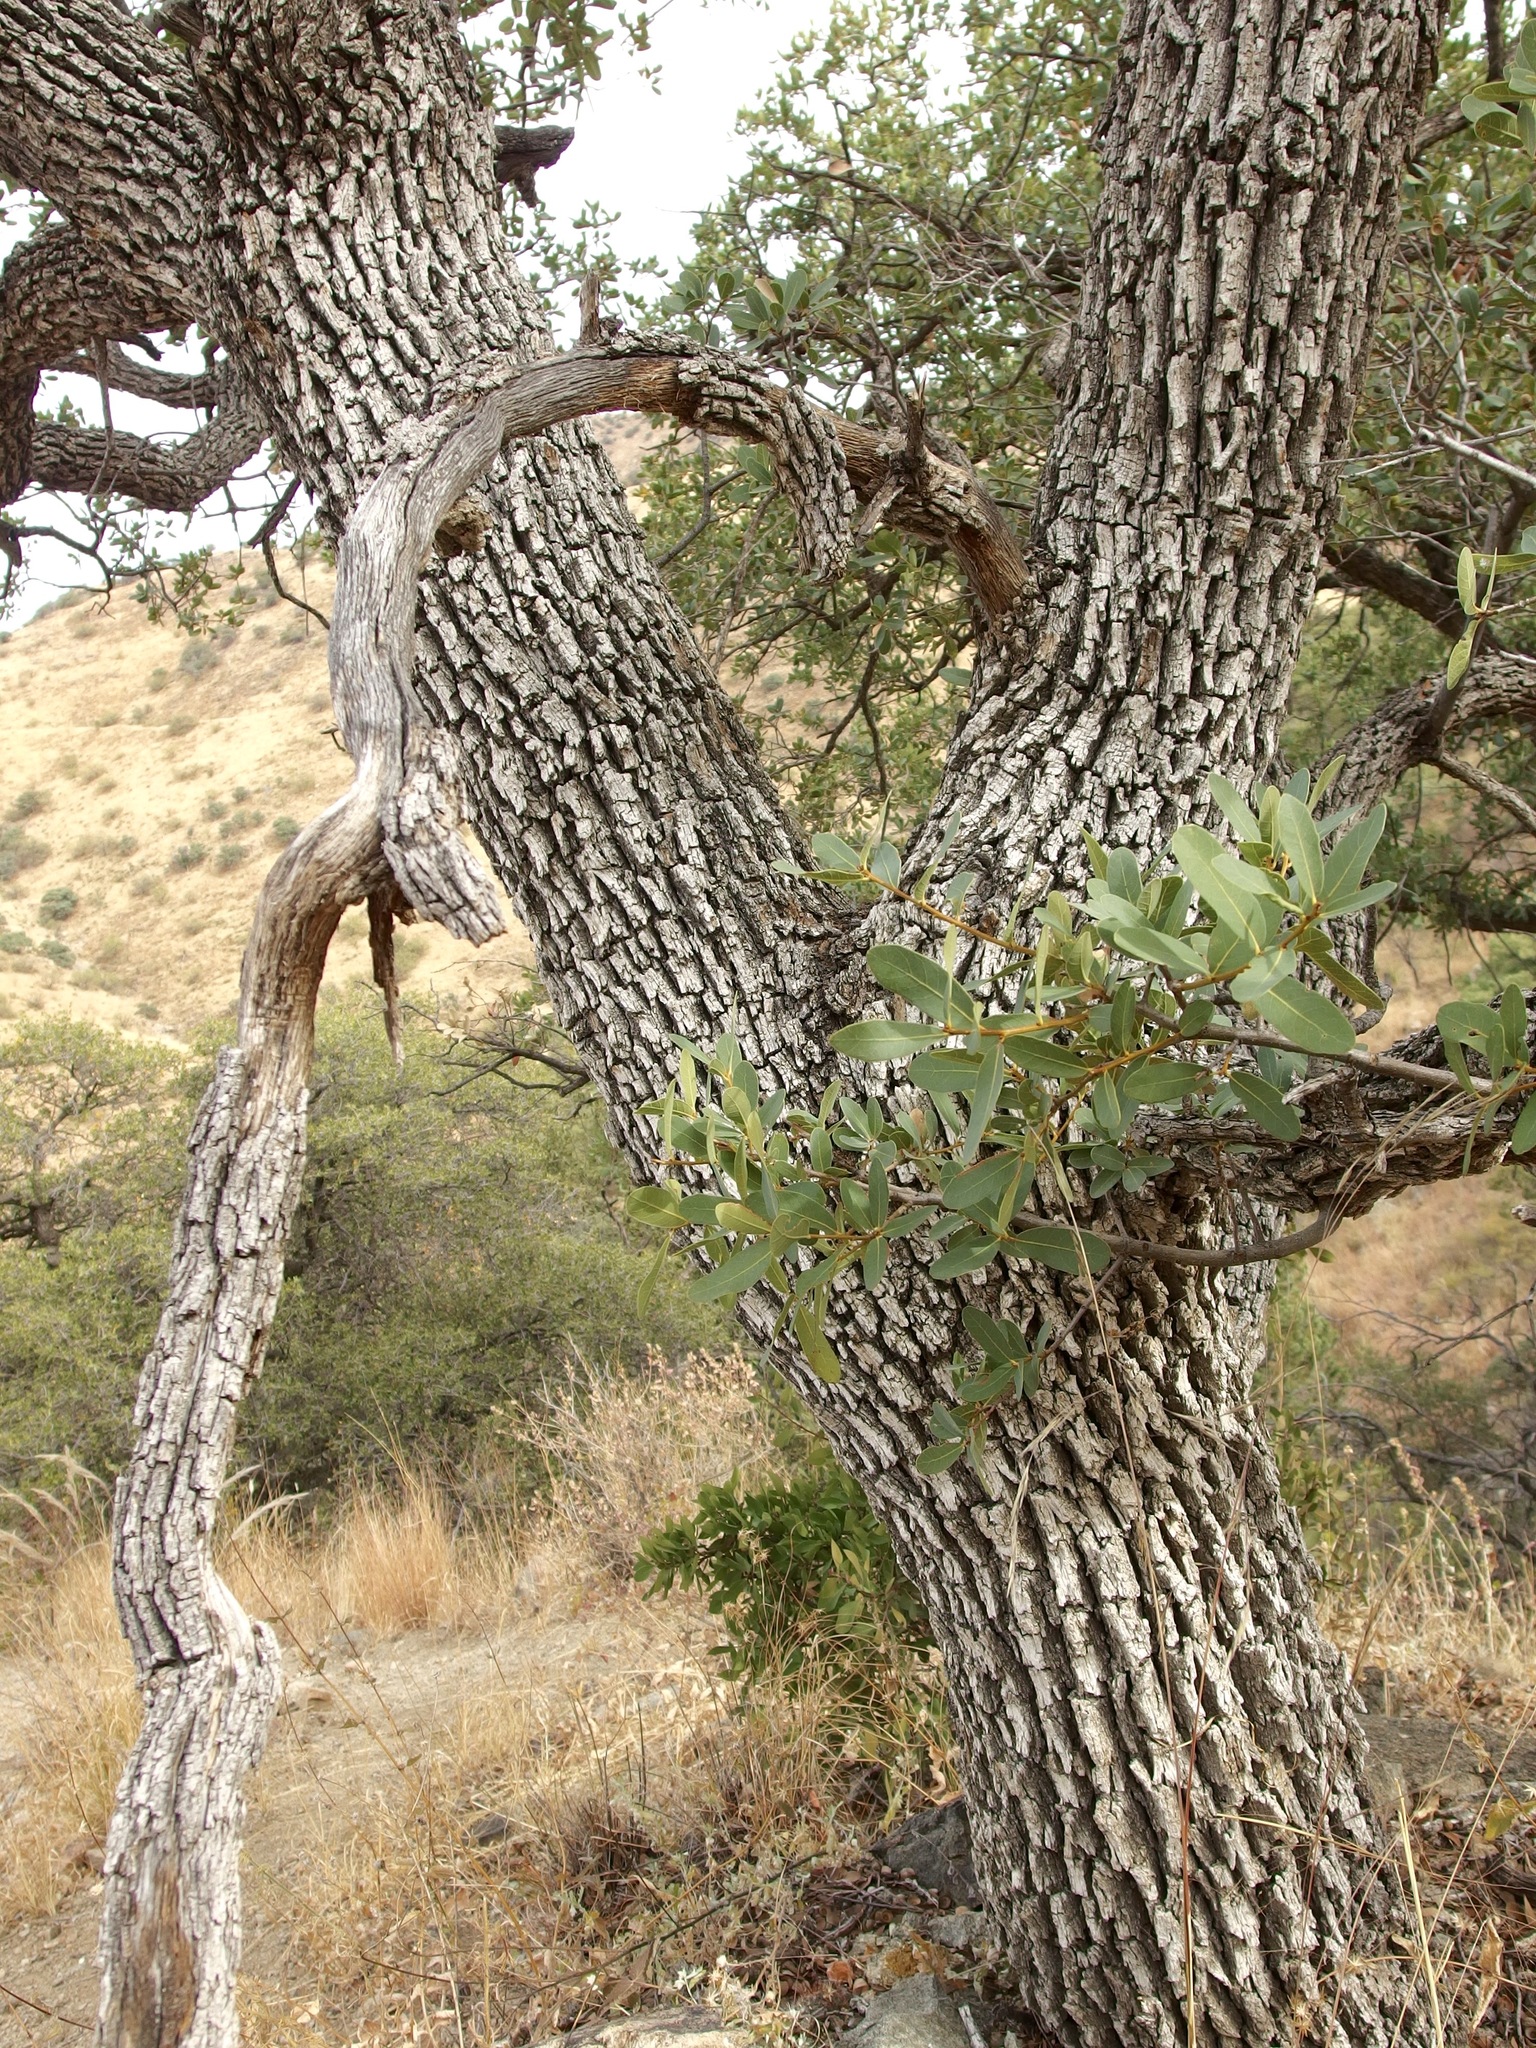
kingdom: Plantae
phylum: Tracheophyta
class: Magnoliopsida
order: Fagales
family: Fagaceae
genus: Quercus
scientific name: Quercus oblongifolia
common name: Mexican blue oak
